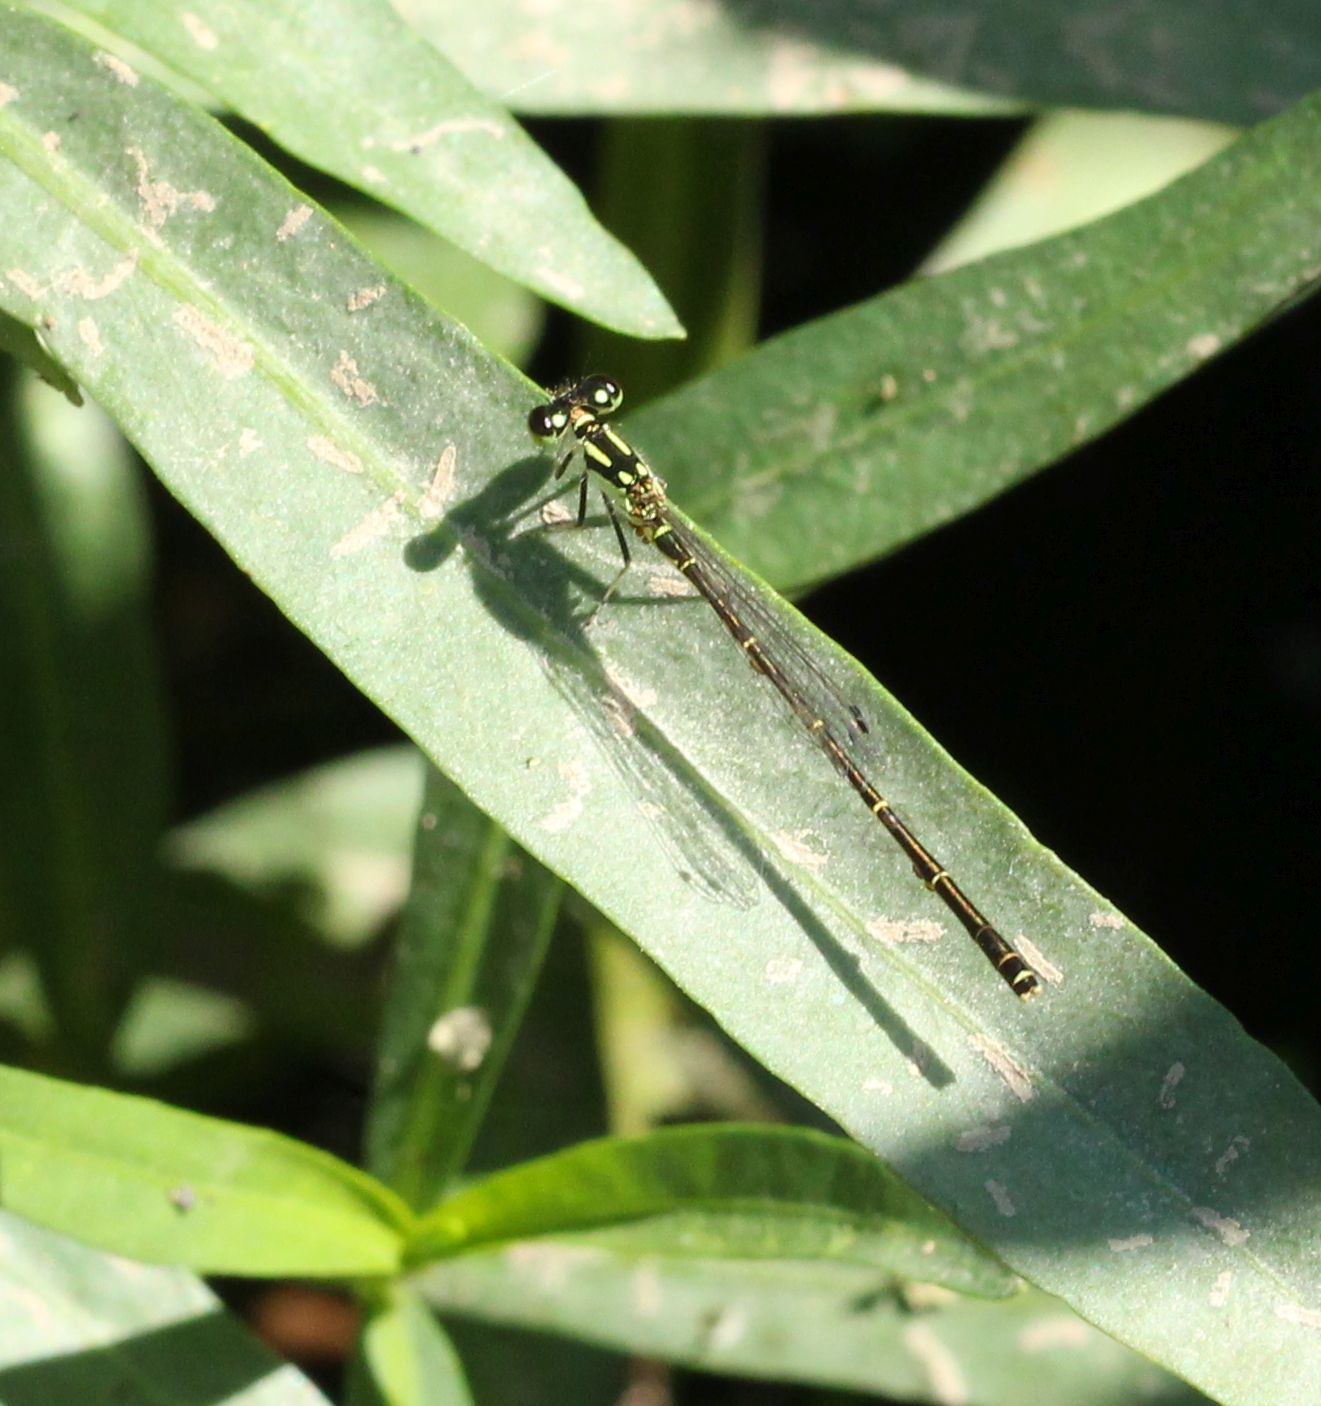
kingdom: Animalia
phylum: Arthropoda
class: Insecta
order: Odonata
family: Coenagrionidae
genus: Ischnura
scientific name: Ischnura posita
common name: Fragile forktail
